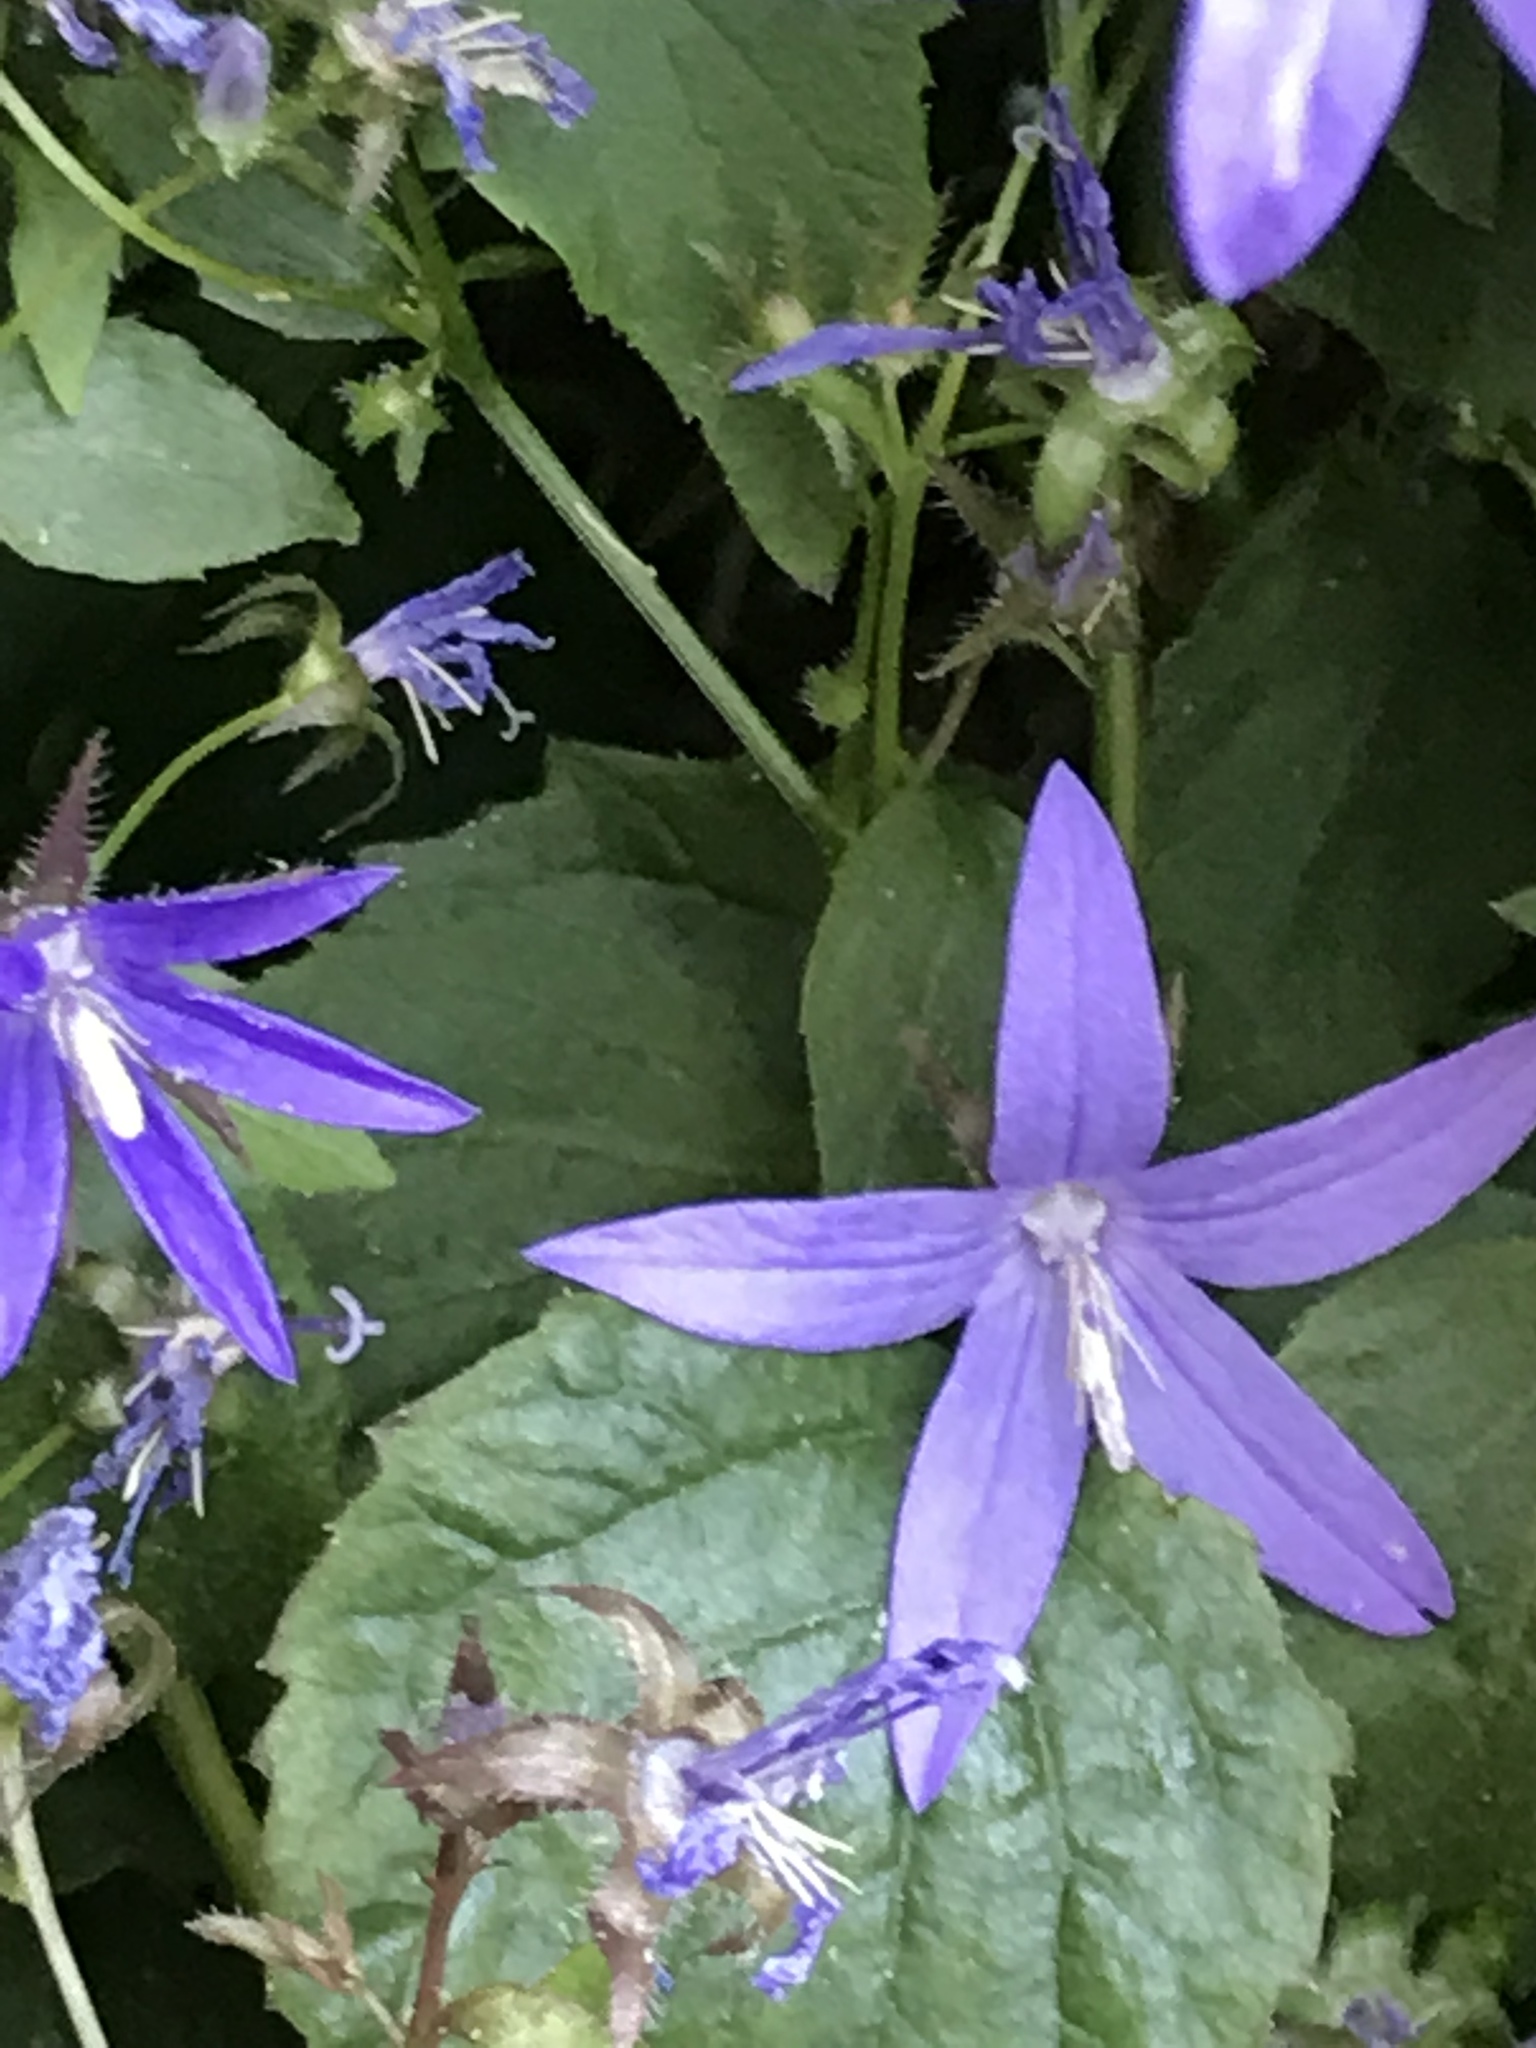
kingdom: Plantae
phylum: Tracheophyta
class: Magnoliopsida
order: Asterales
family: Campanulaceae
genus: Campanula
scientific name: Campanula poscharskyana
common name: Trailing bellflower
